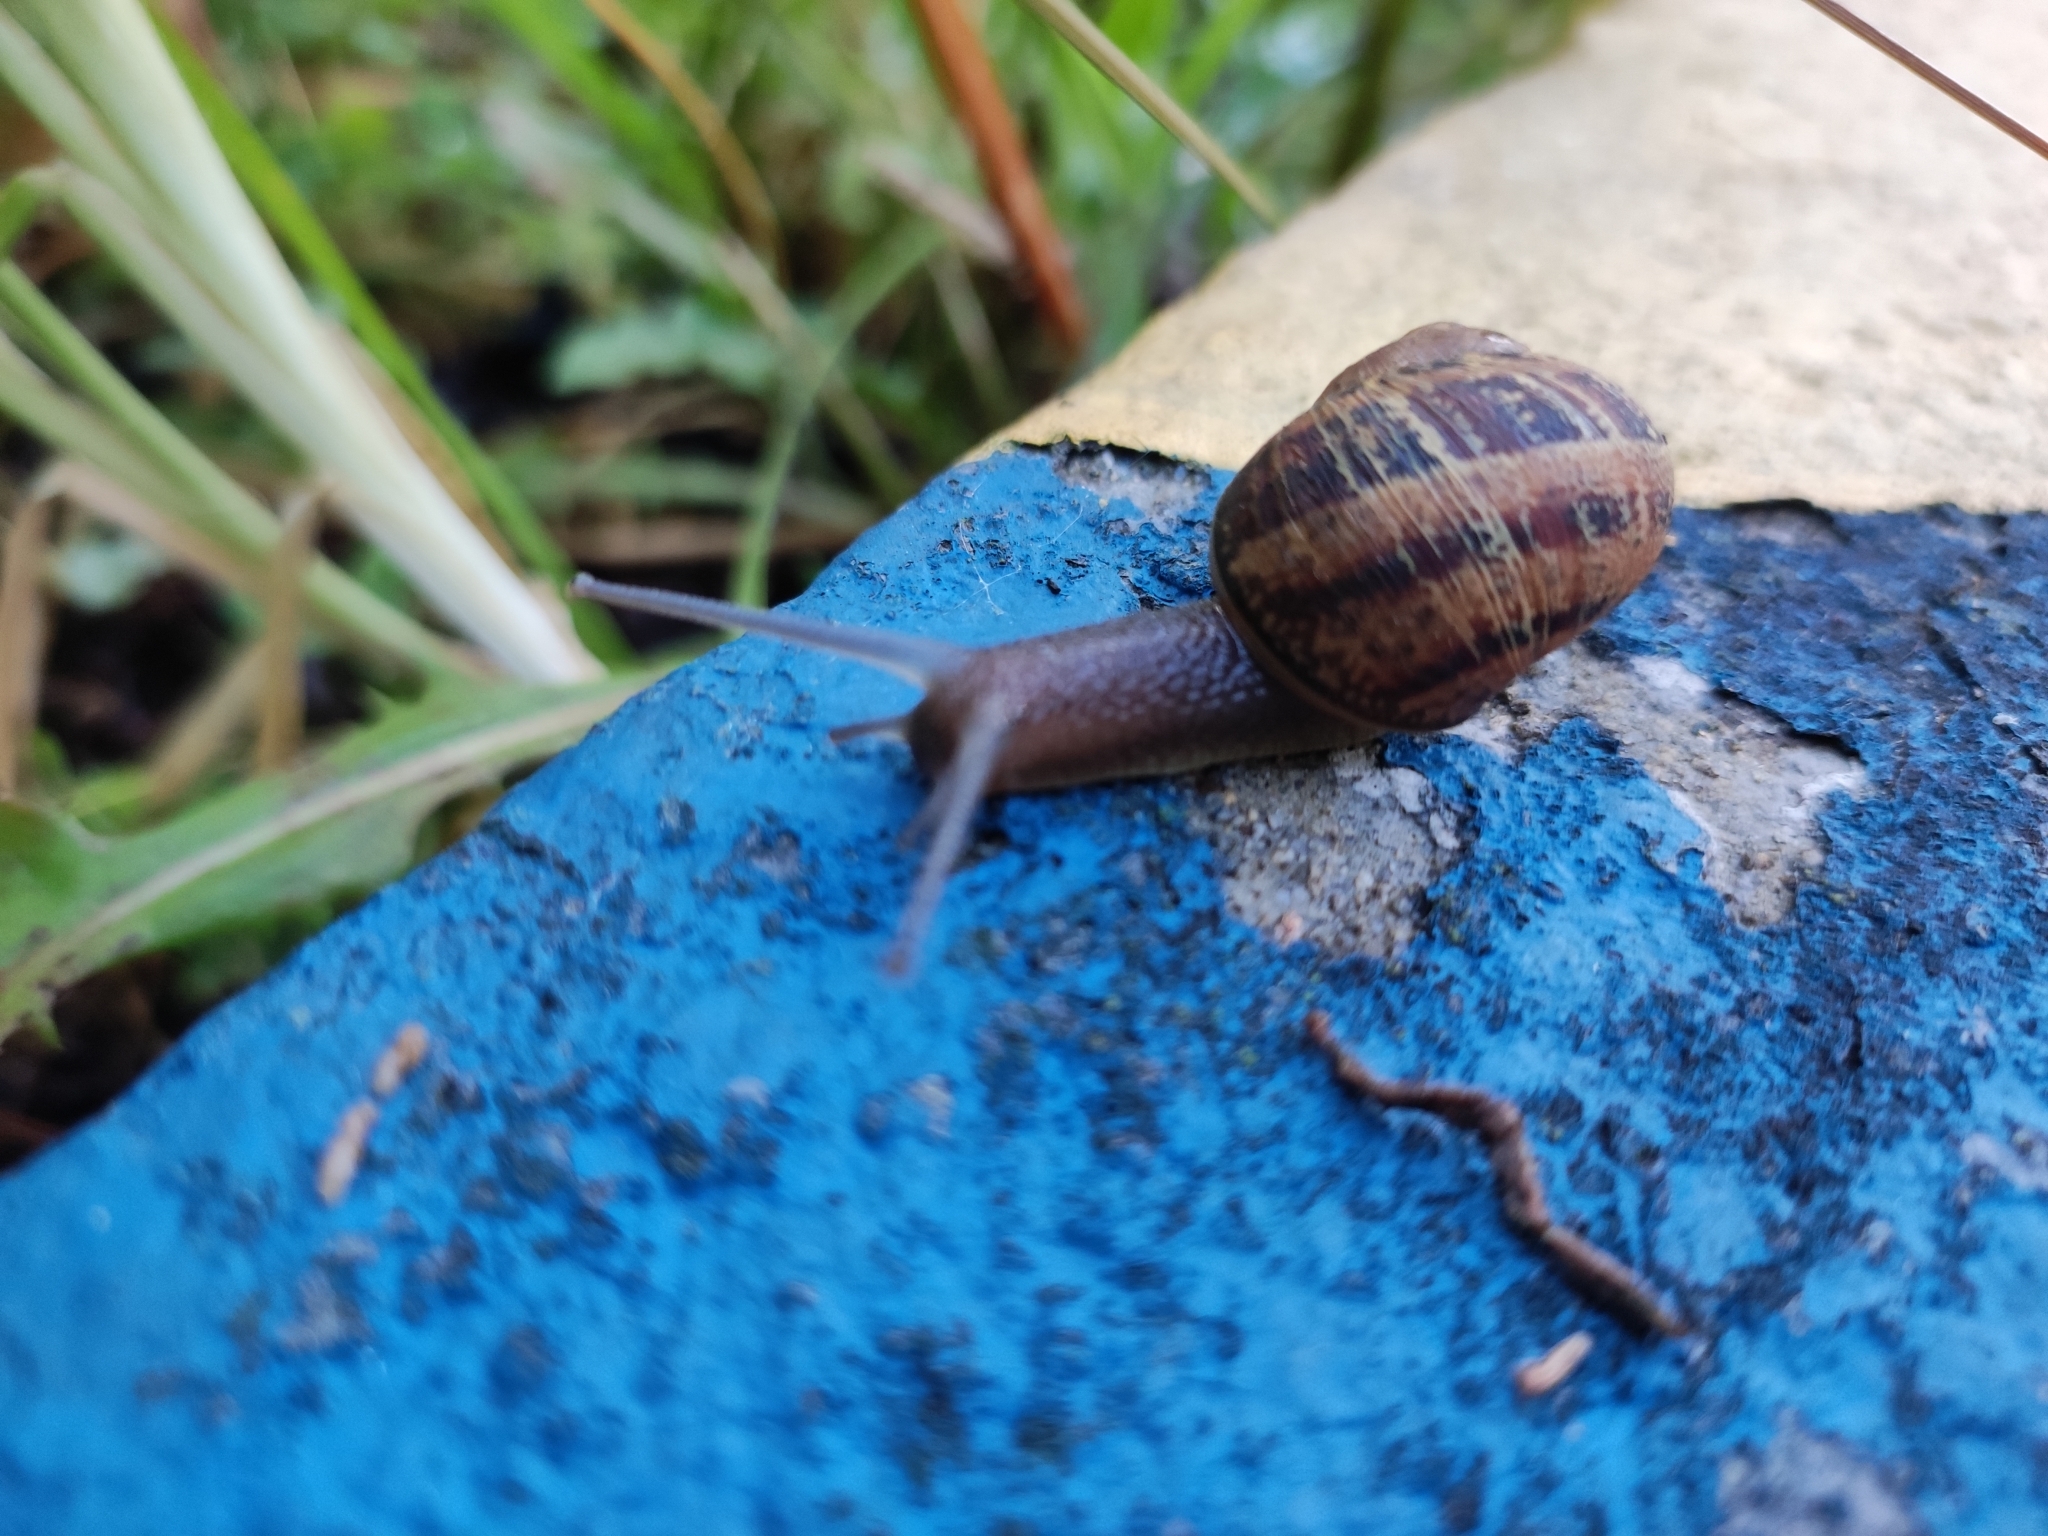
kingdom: Animalia
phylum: Mollusca
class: Gastropoda
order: Stylommatophora
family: Helicidae
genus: Cornu
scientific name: Cornu aspersum
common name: Brown garden snail
